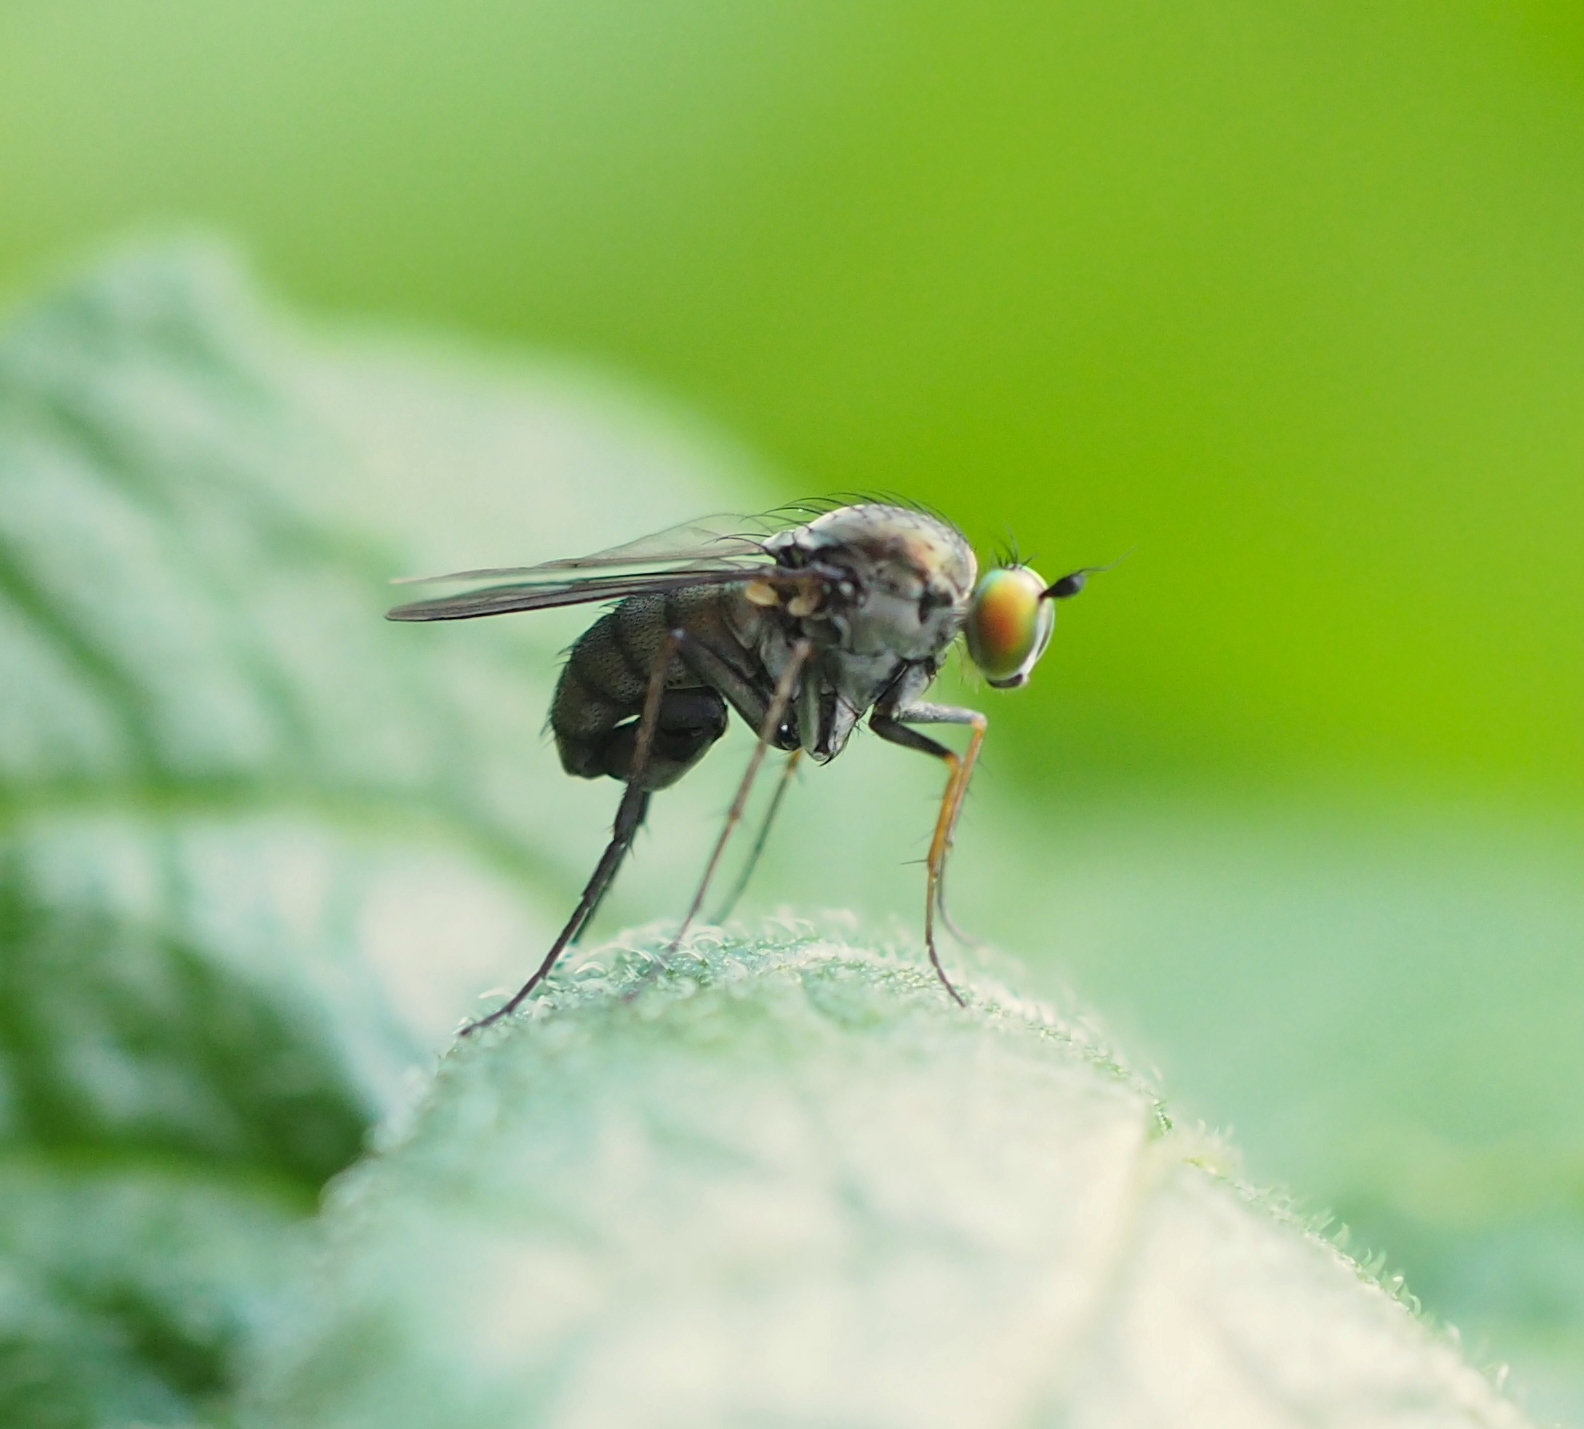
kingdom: Animalia
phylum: Arthropoda
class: Insecta
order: Diptera
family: Dolichopodidae
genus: Hercostomus
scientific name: Hercostomus nigriplantis
